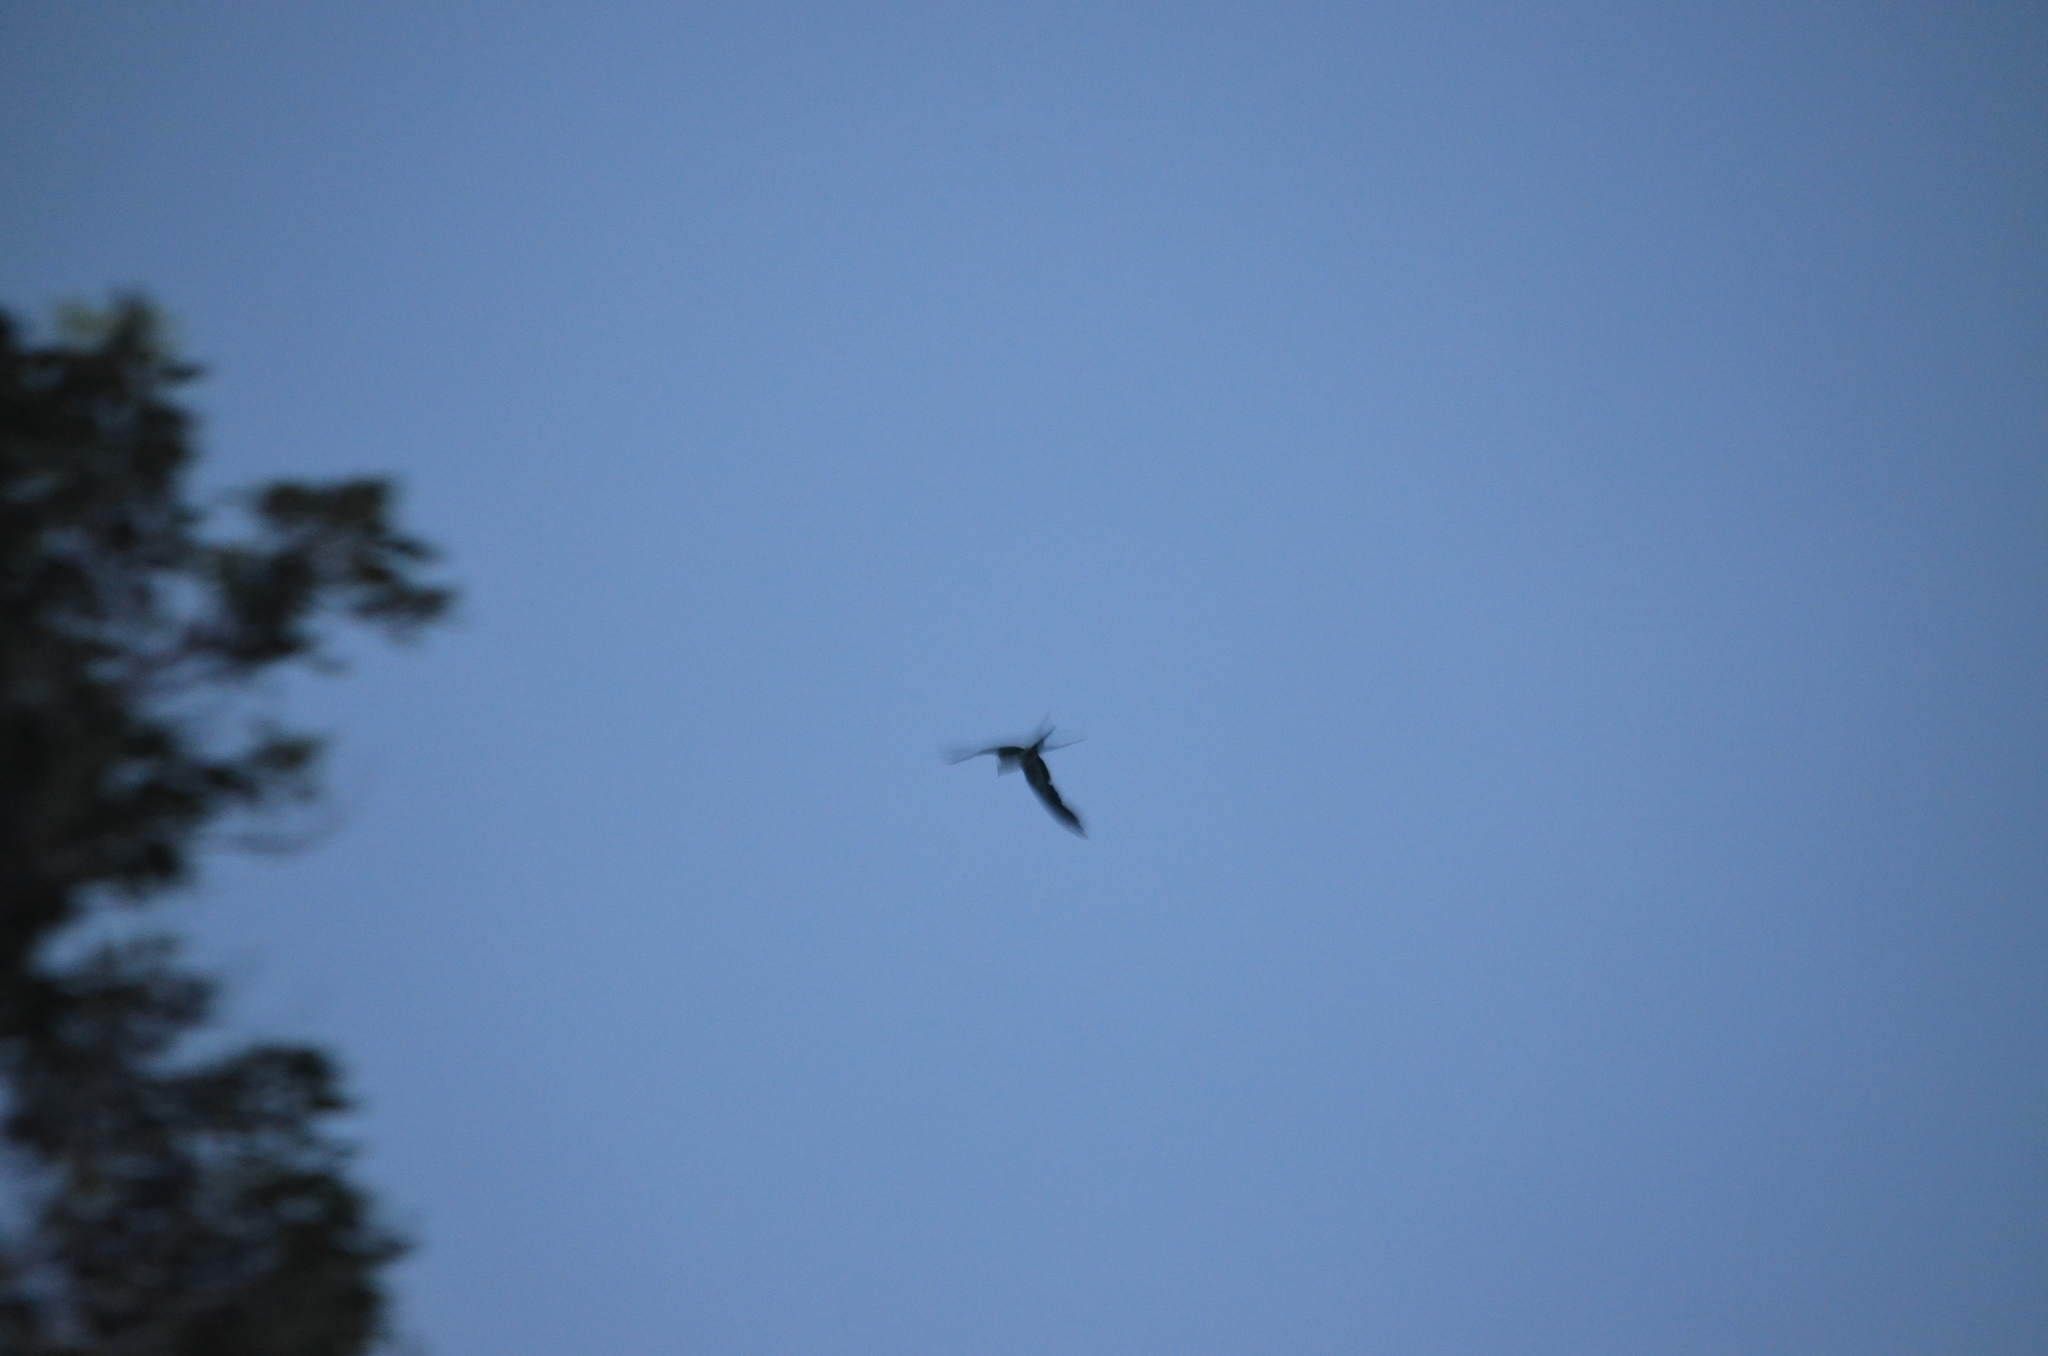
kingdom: Animalia
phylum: Chordata
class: Aves
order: Accipitriformes
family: Accipitridae
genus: Elanoides
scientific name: Elanoides forficatus
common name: Swallow-tailed kite
